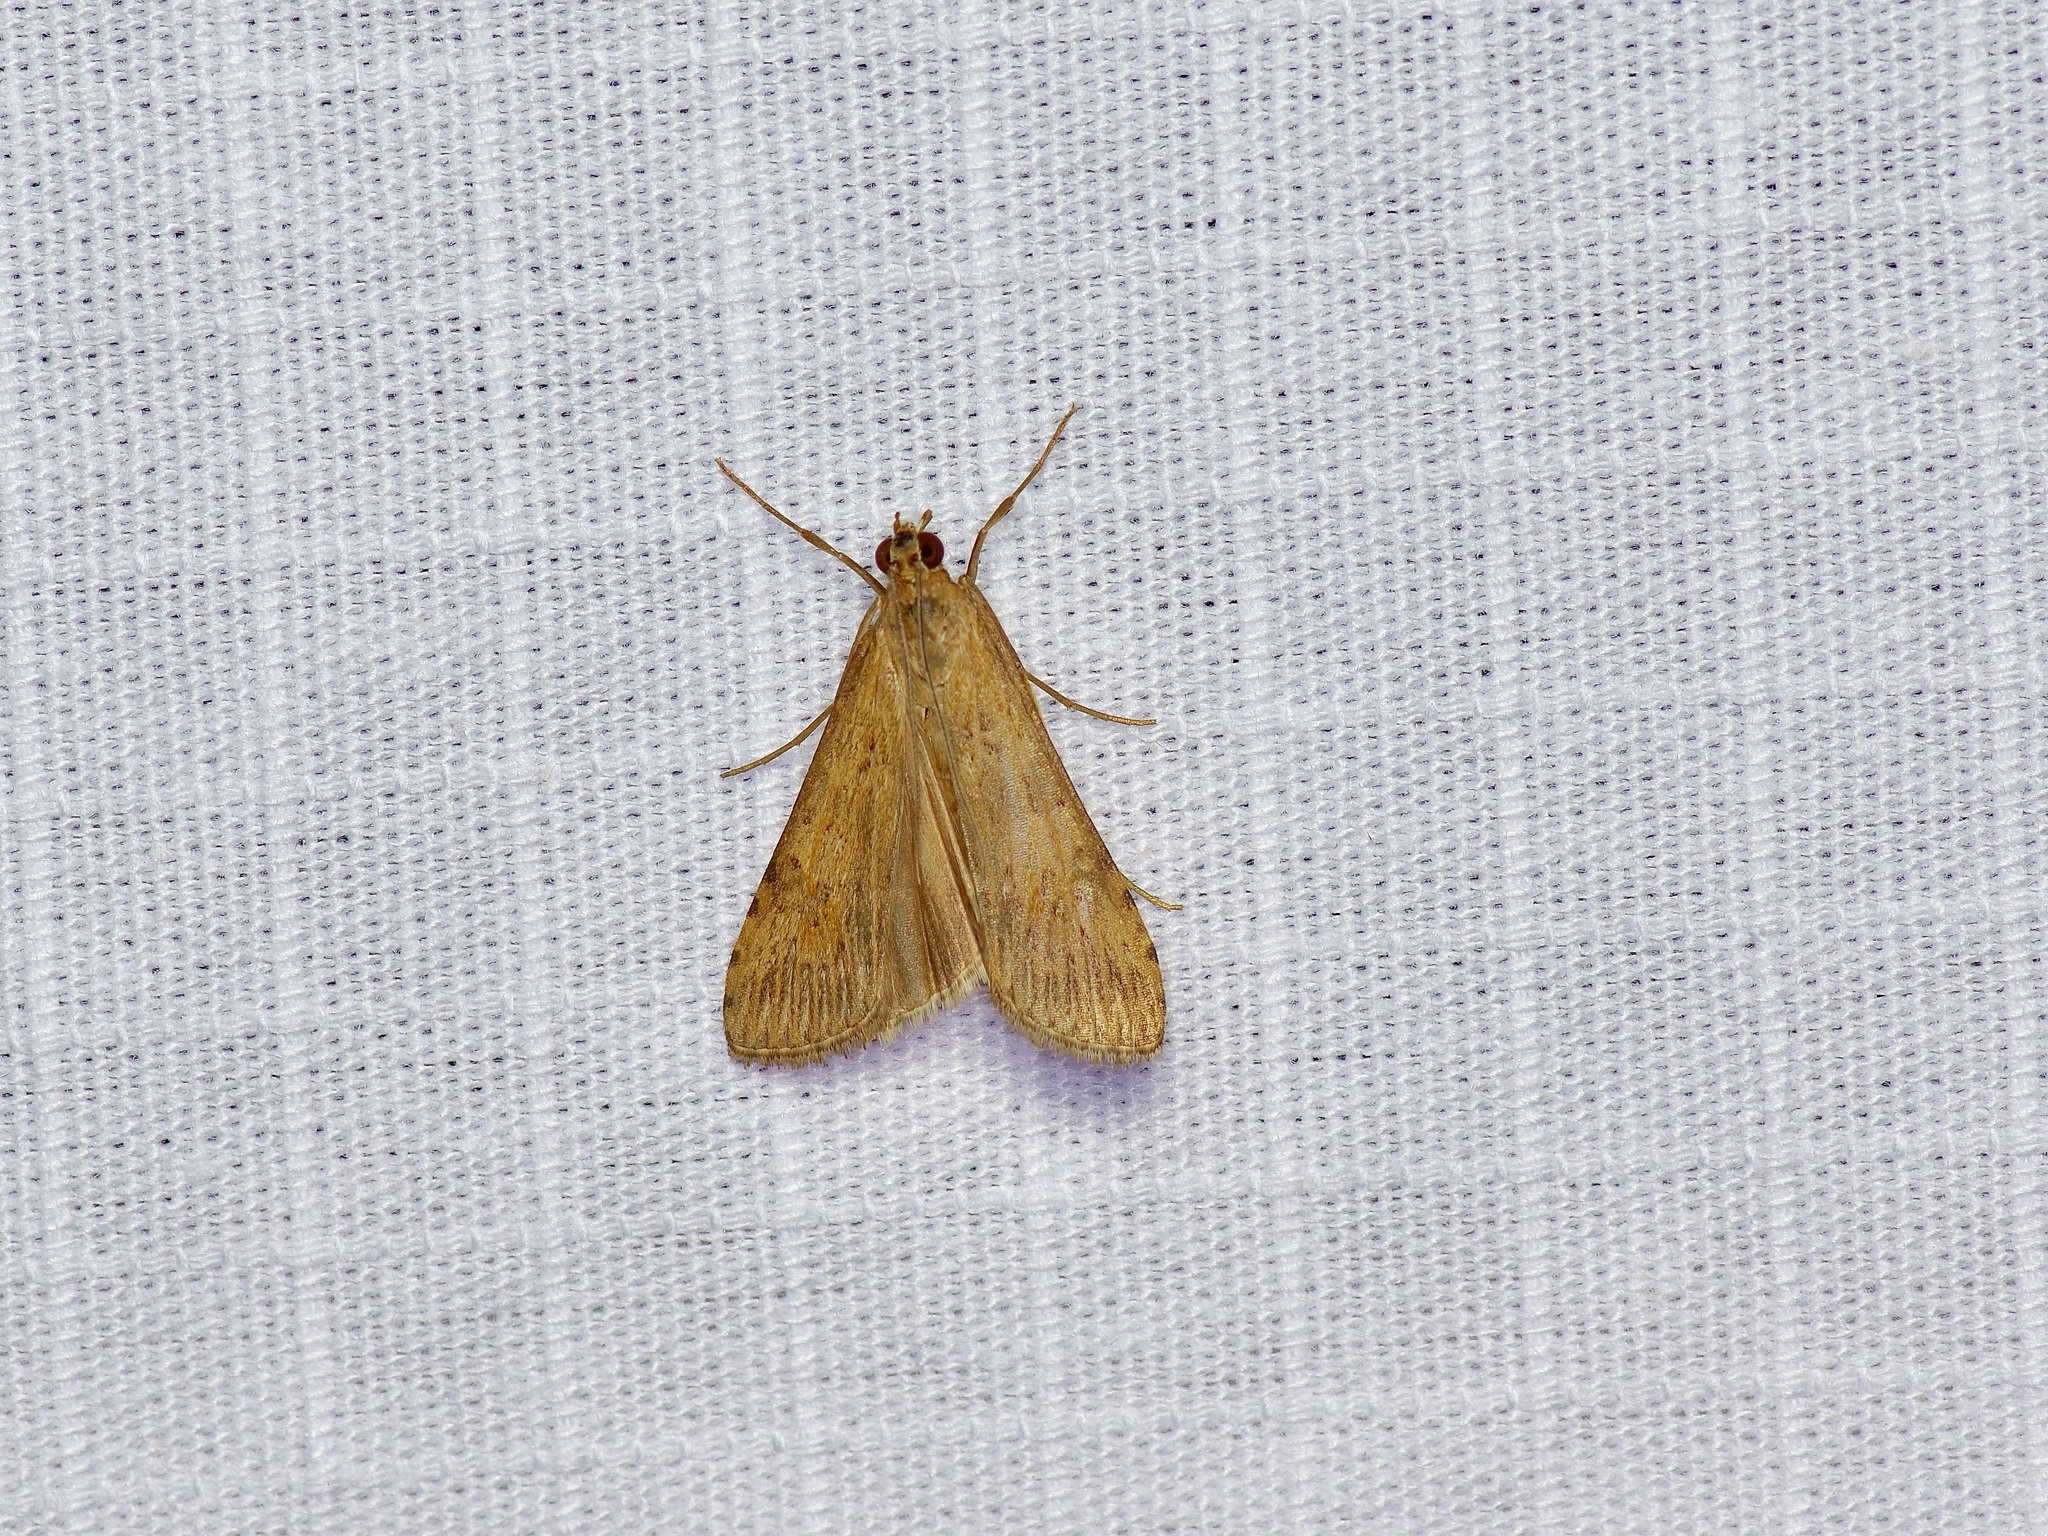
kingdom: Animalia
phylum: Arthropoda
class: Insecta
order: Lepidoptera
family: Crambidae
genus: Nomophila
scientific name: Nomophila nearctica
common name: American rush veneer
